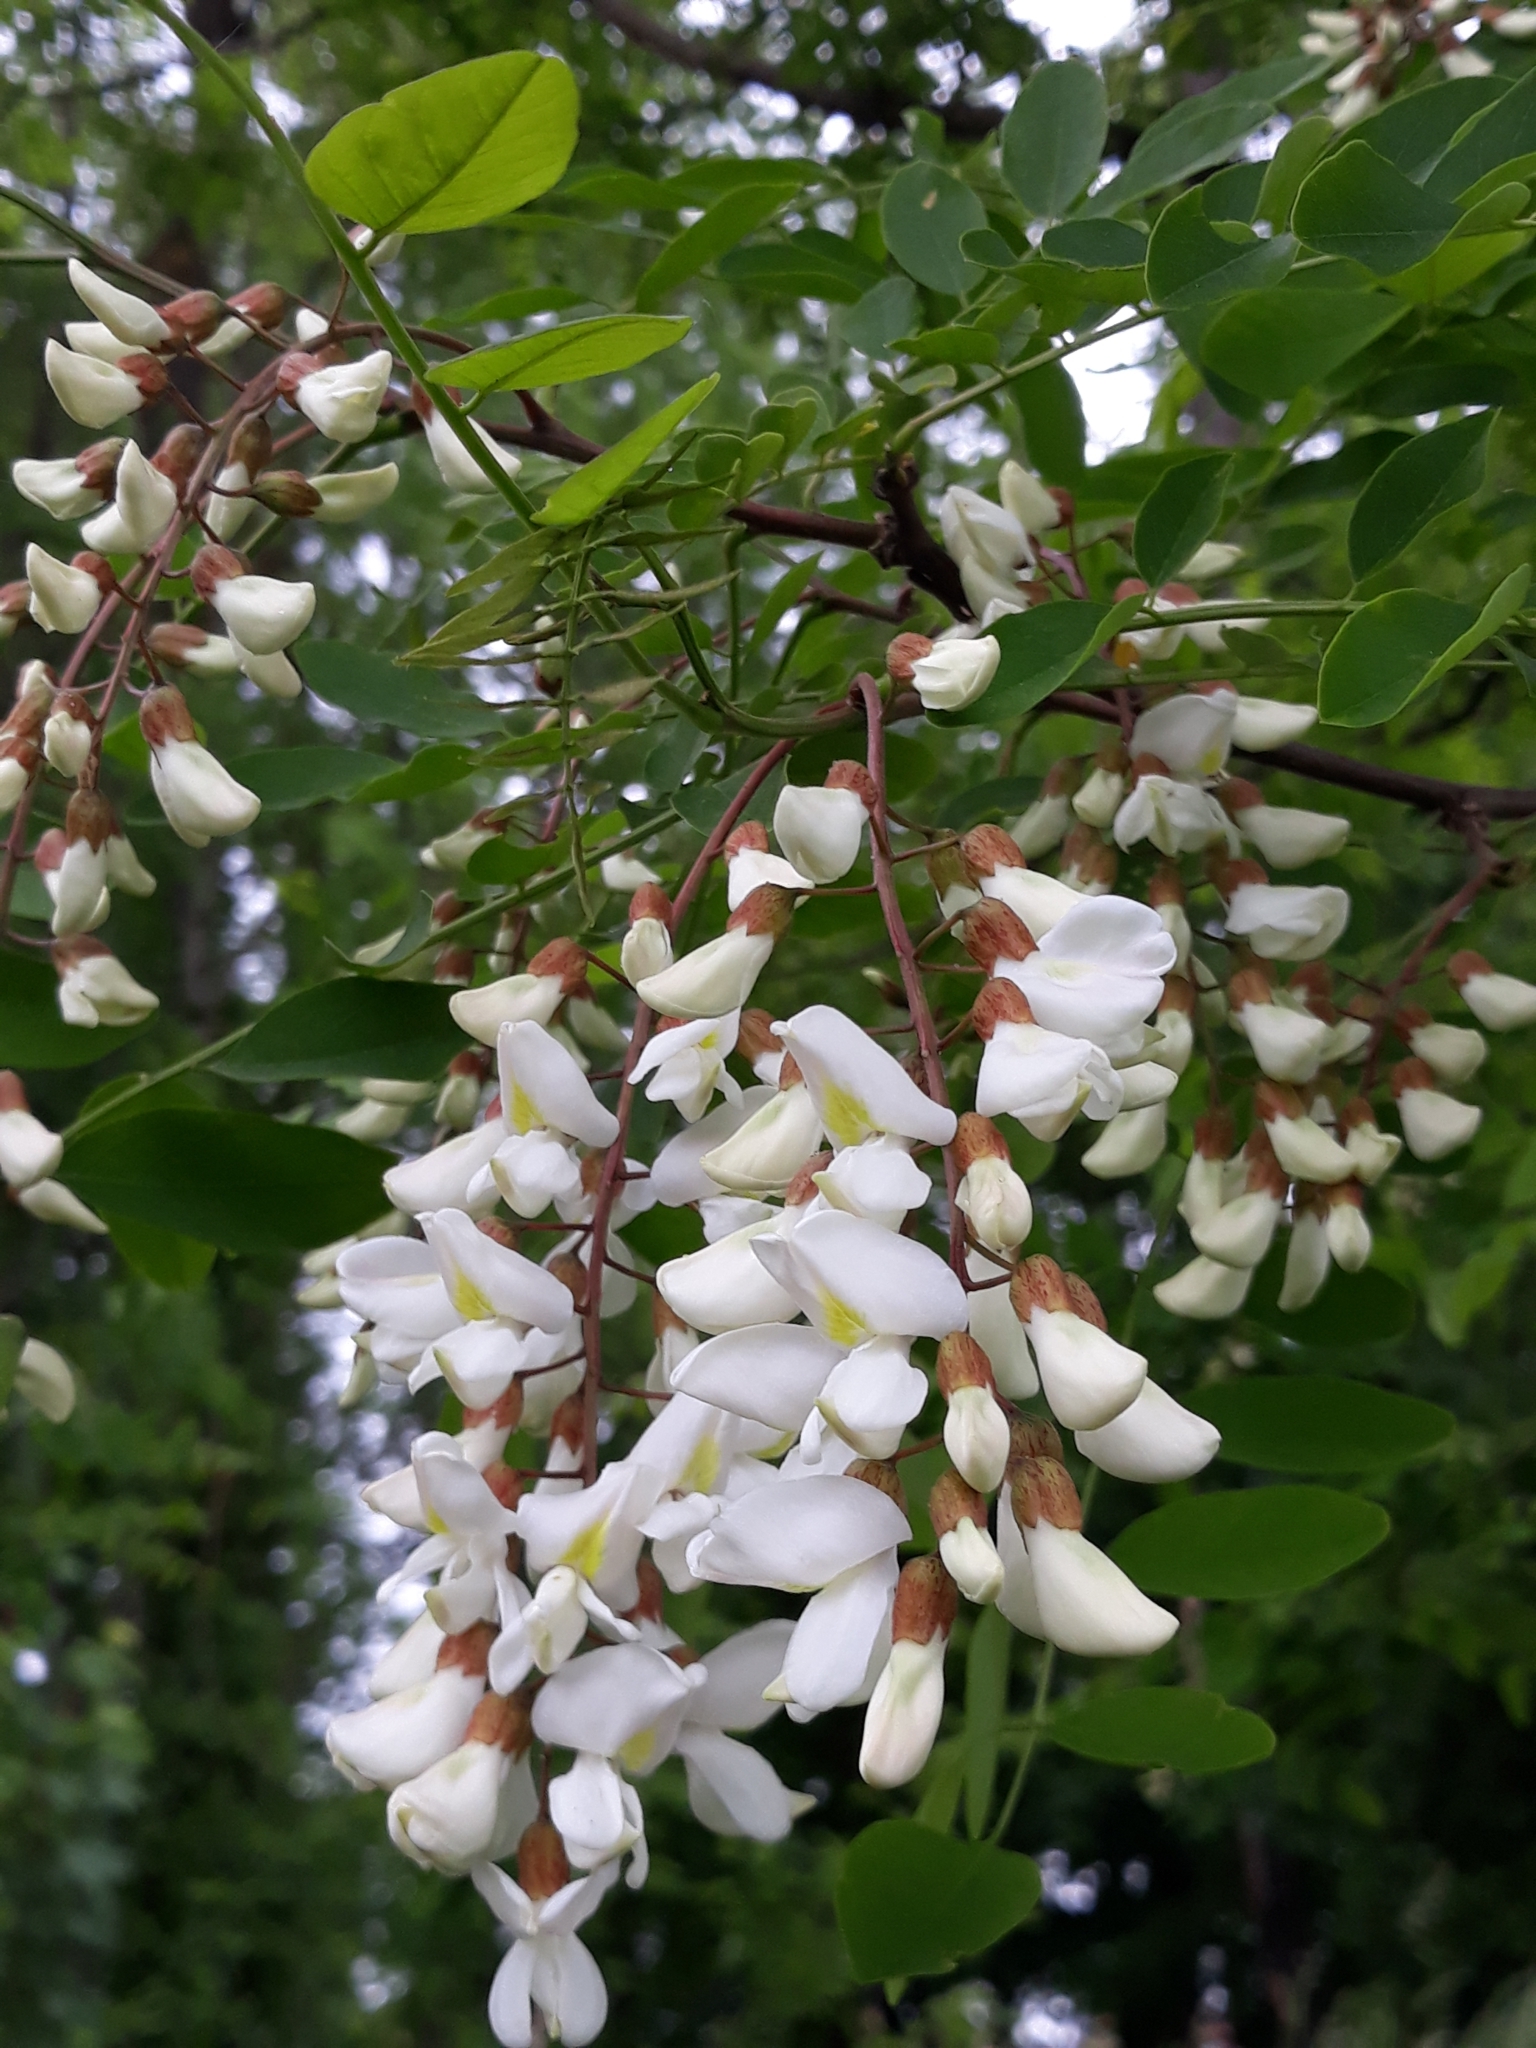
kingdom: Plantae
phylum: Tracheophyta
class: Magnoliopsida
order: Fabales
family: Fabaceae
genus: Robinia
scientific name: Robinia pseudoacacia
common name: Black locust
